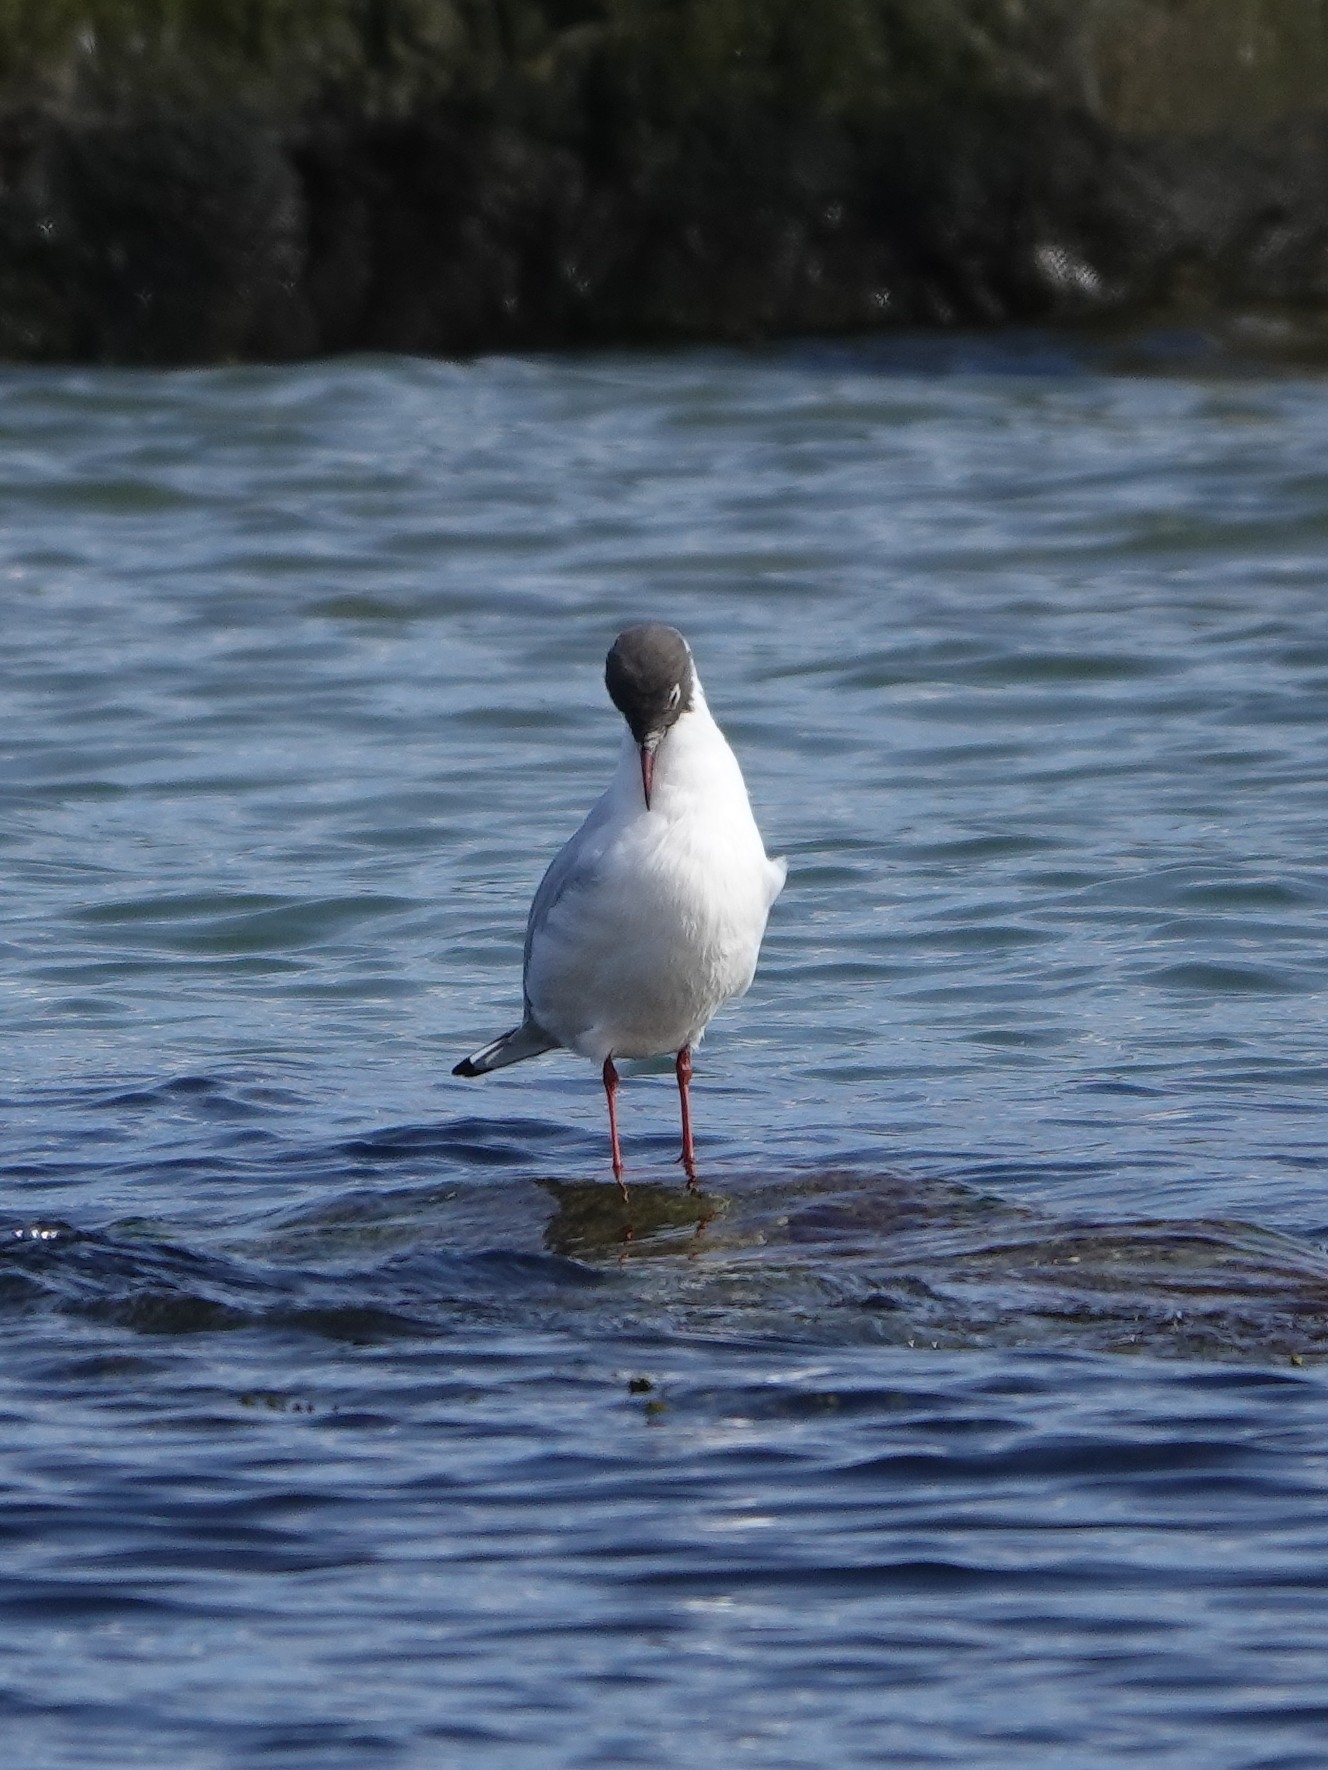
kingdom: Animalia
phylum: Chordata
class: Aves
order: Charadriiformes
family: Laridae
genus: Chroicocephalus
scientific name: Chroicocephalus ridibundus
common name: Black-headed gull
